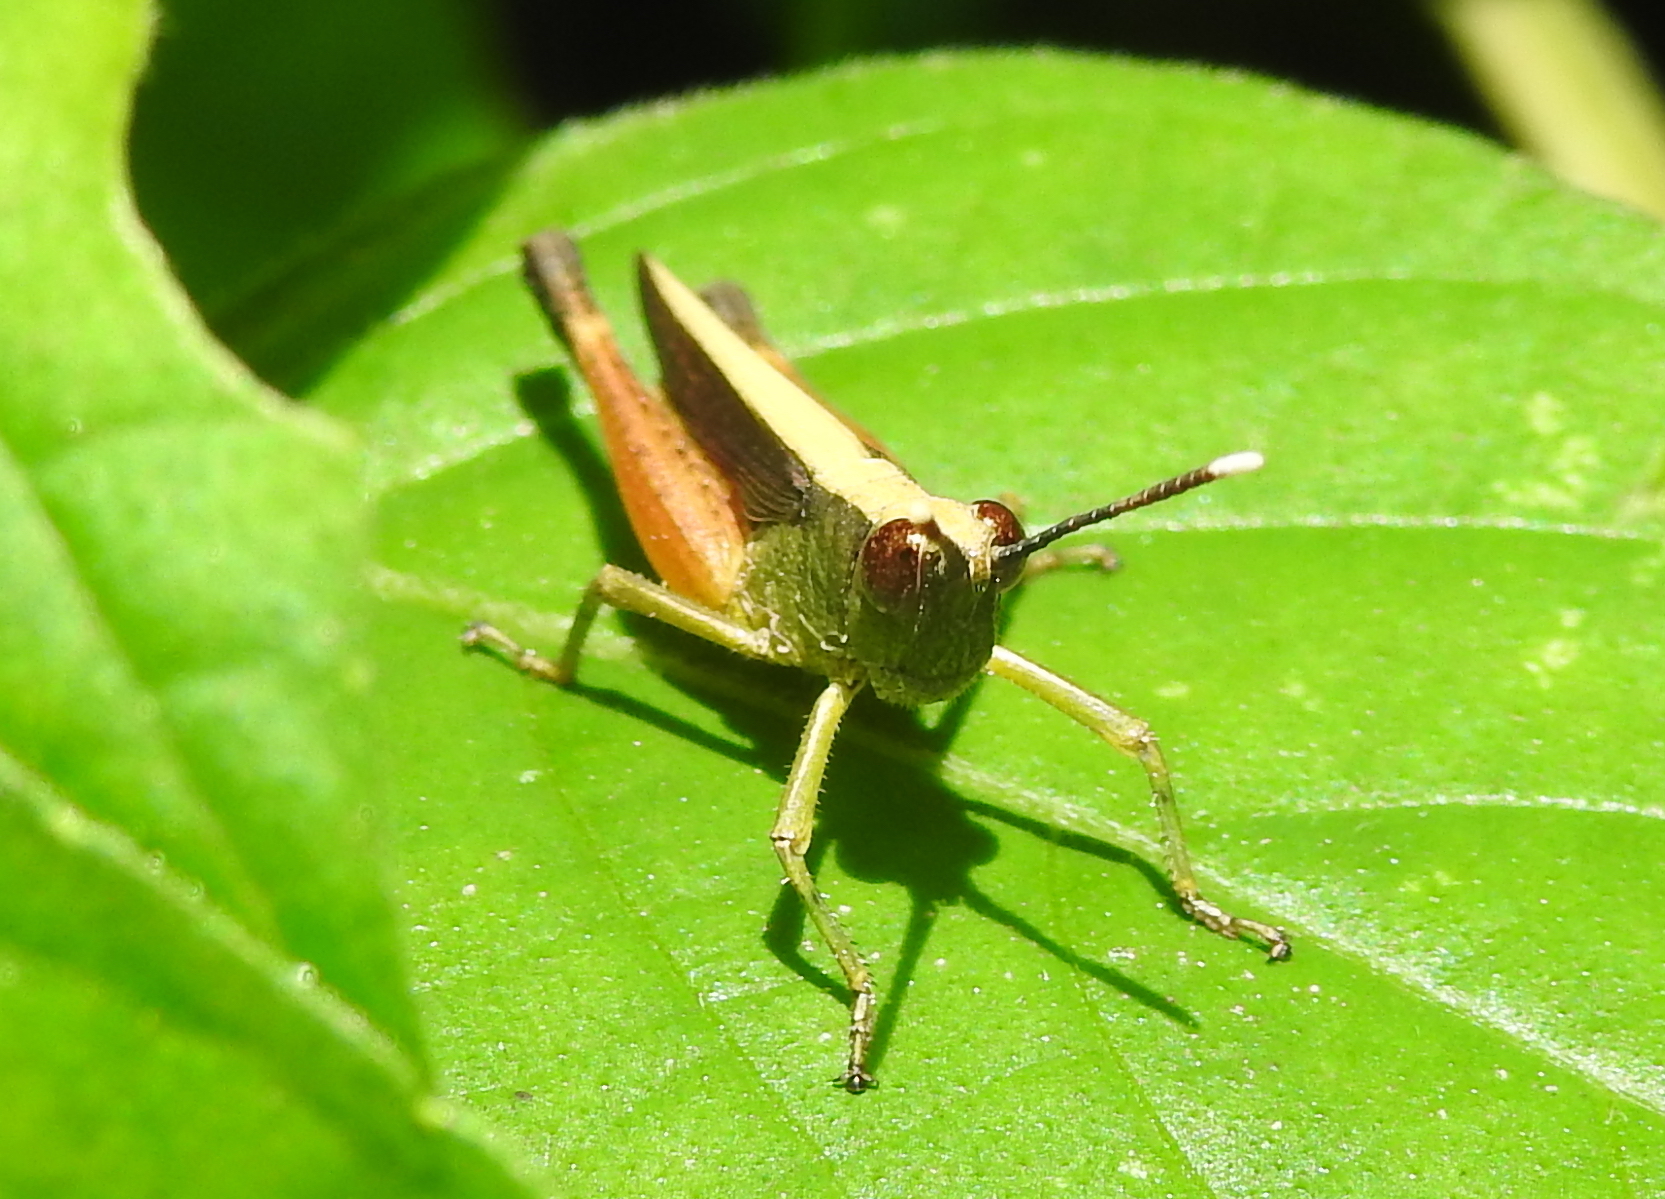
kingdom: Animalia
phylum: Arthropoda
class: Insecta
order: Orthoptera
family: Acrididae
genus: Phlaeoba
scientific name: Phlaeoba antennata
